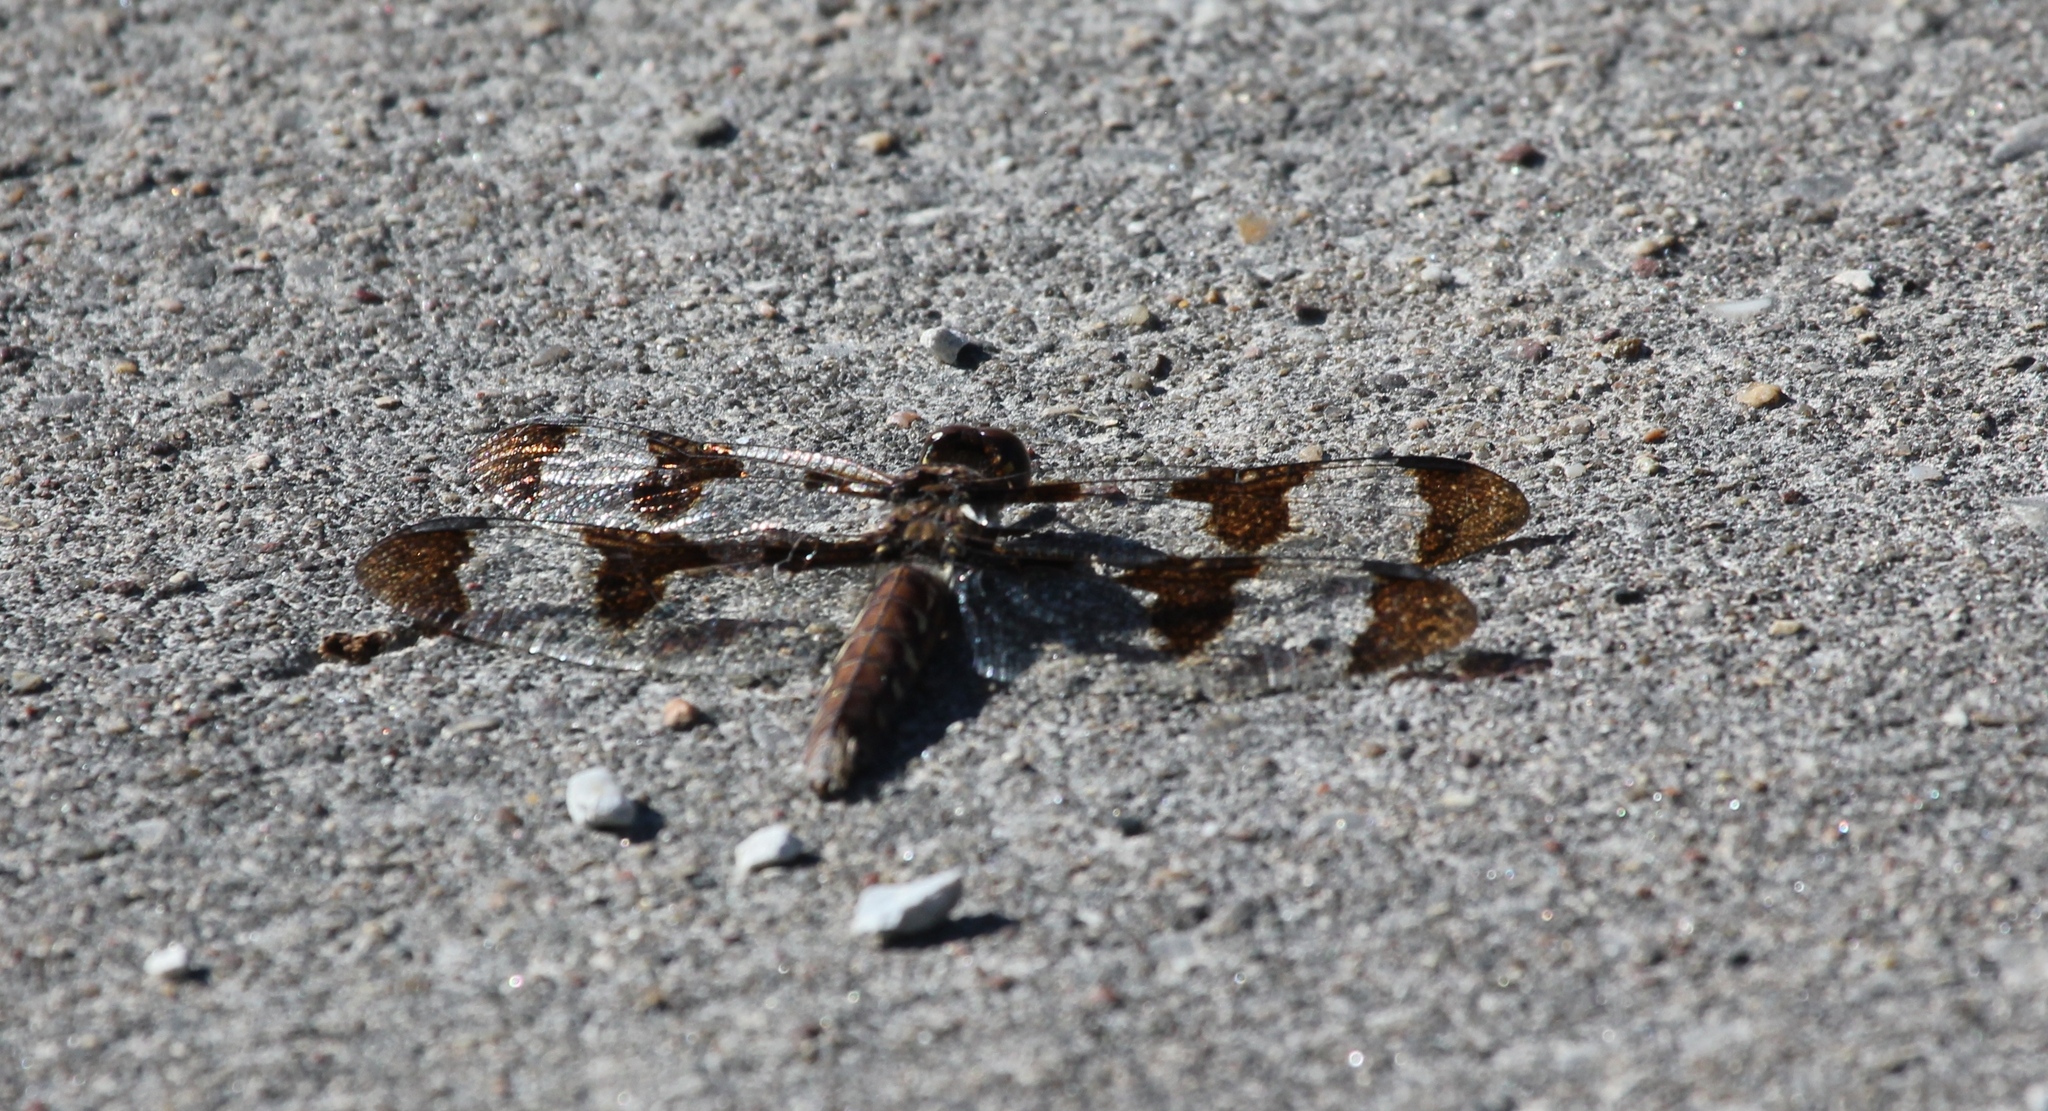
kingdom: Animalia
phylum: Arthropoda
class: Insecta
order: Odonata
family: Libellulidae
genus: Plathemis
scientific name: Plathemis lydia
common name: Common whitetail
